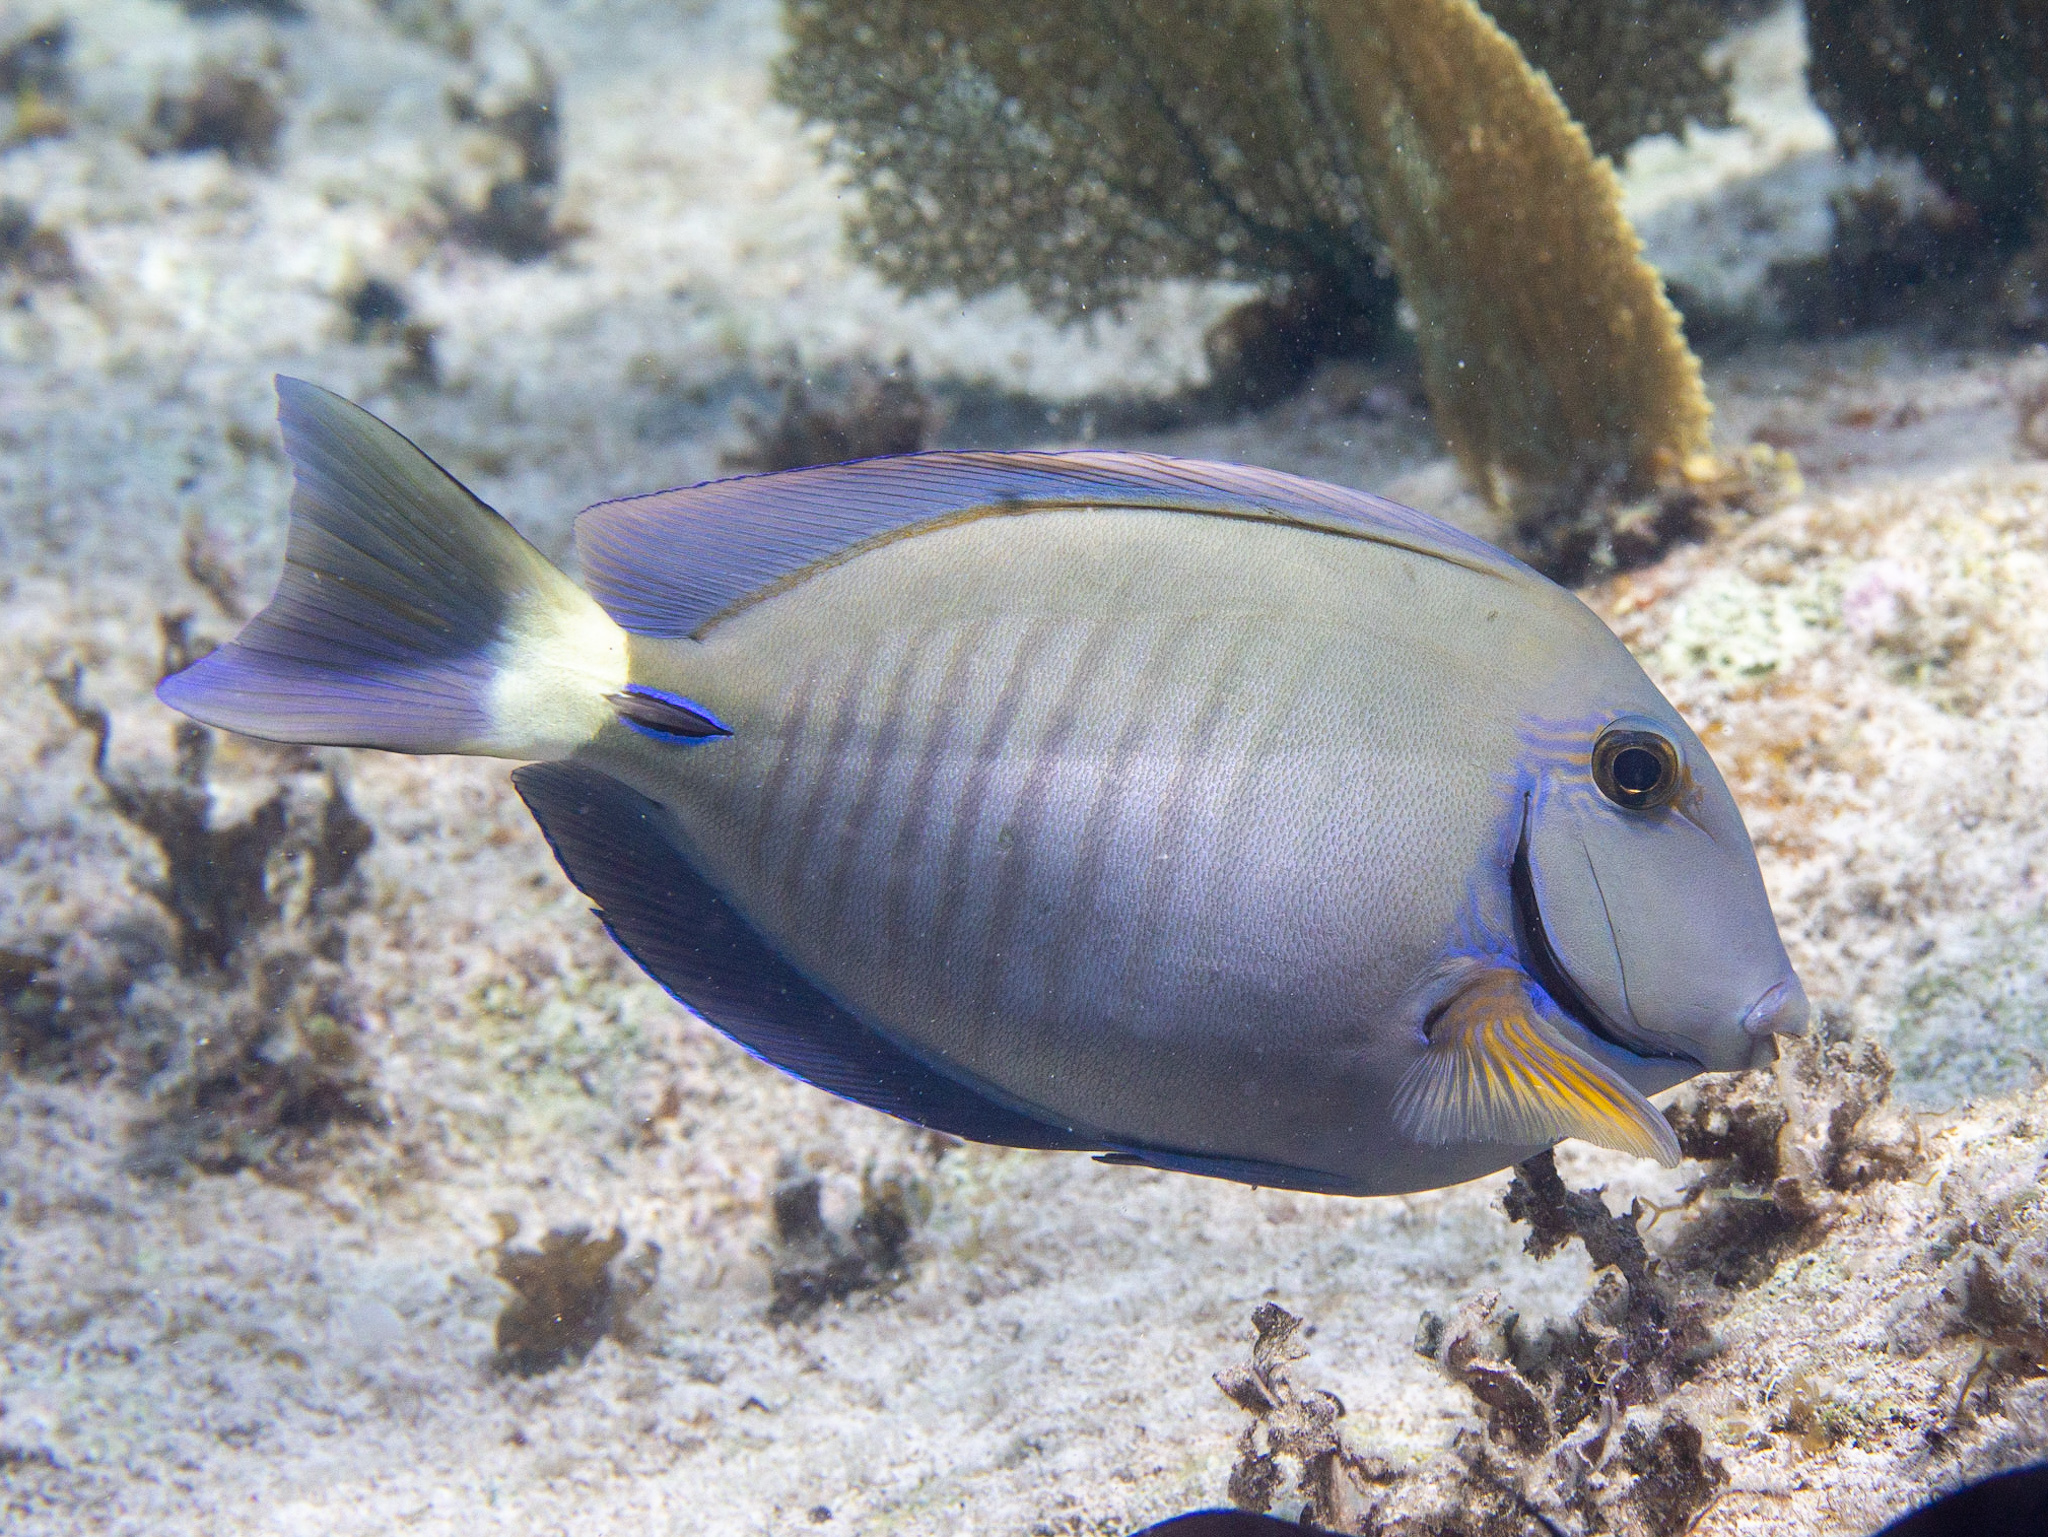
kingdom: Animalia
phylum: Chordata
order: Perciformes
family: Acanthuridae
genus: Acanthurus
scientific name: Acanthurus chirurgus
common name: Doctorfish
